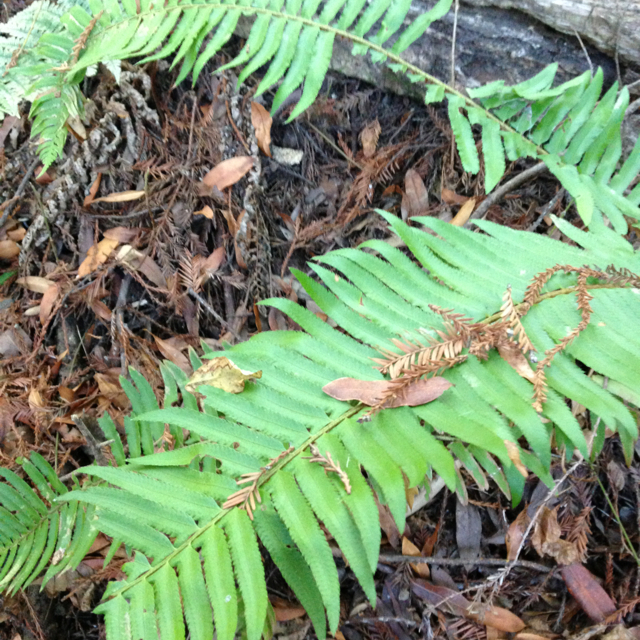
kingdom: Plantae
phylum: Tracheophyta
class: Polypodiopsida
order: Polypodiales
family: Dryopteridaceae
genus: Polystichum
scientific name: Polystichum munitum
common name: Western sword-fern
